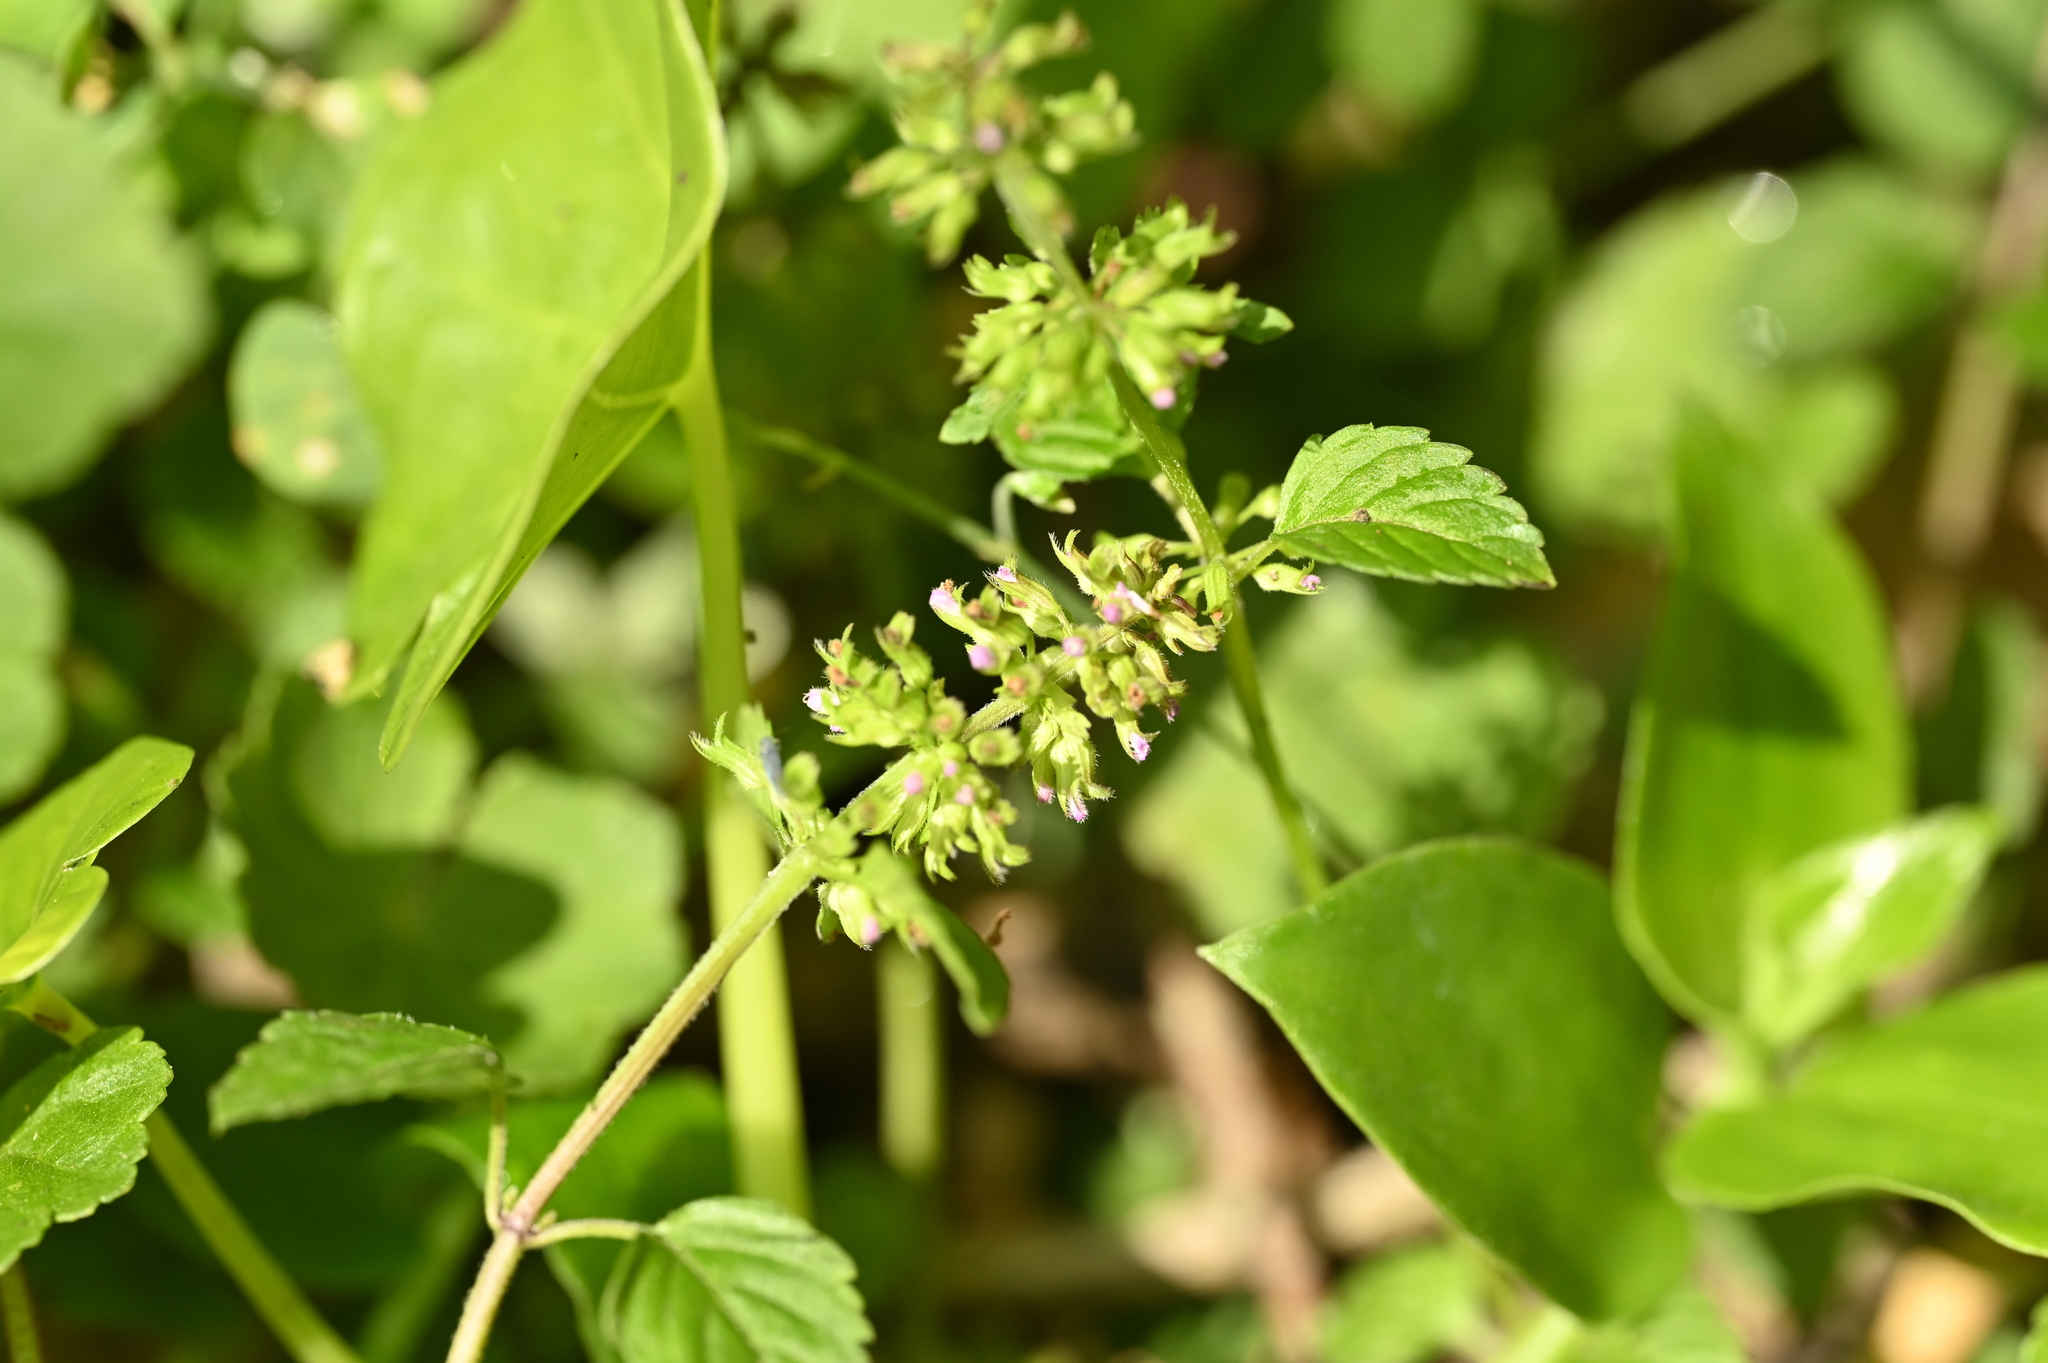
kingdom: Plantae
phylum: Tracheophyta
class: Magnoliopsida
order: Lamiales
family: Lamiaceae
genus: Clinopodium
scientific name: Clinopodium gracile
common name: Slender wild basil
